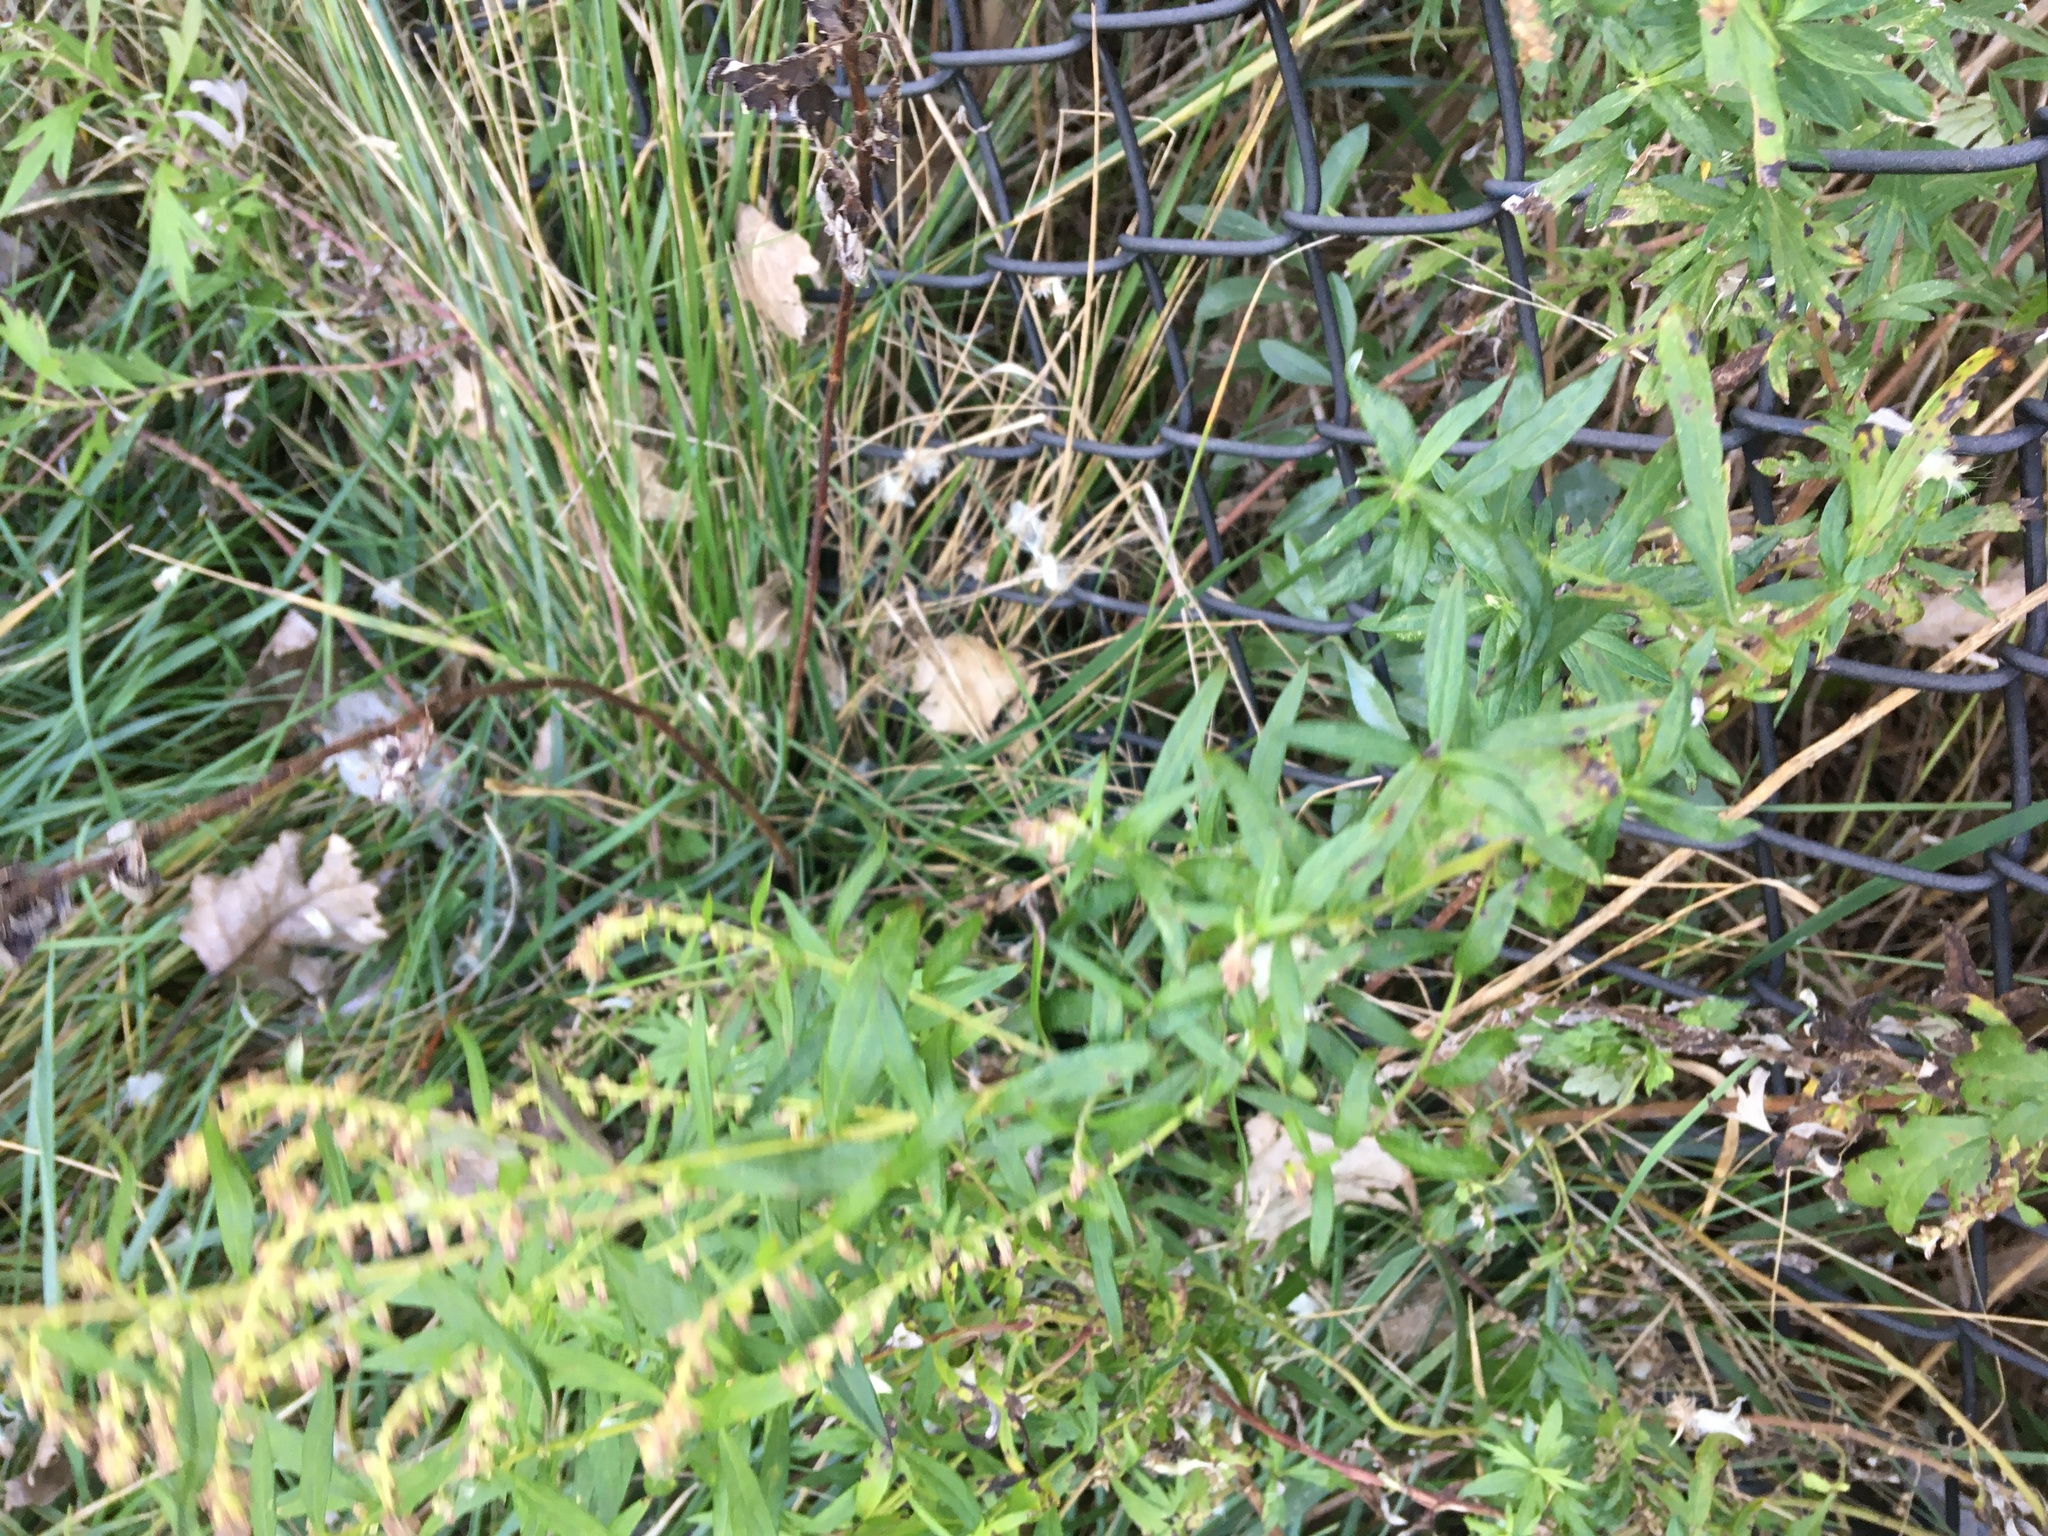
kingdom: Plantae
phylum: Tracheophyta
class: Magnoliopsida
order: Asterales
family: Asteraceae
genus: Artemisia
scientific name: Artemisia vulgaris
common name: Mugwort
